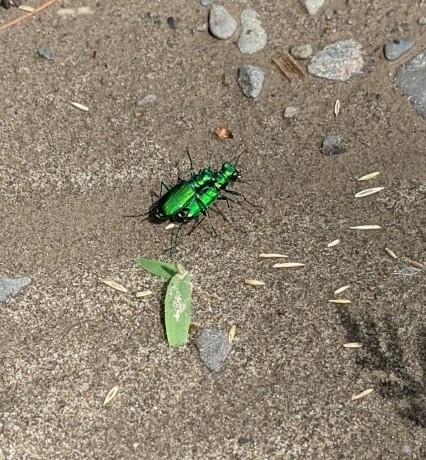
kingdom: Animalia
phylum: Arthropoda
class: Insecta
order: Coleoptera
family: Carabidae
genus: Cicindela
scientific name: Cicindela sexguttata
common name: Six-spotted tiger beetle
